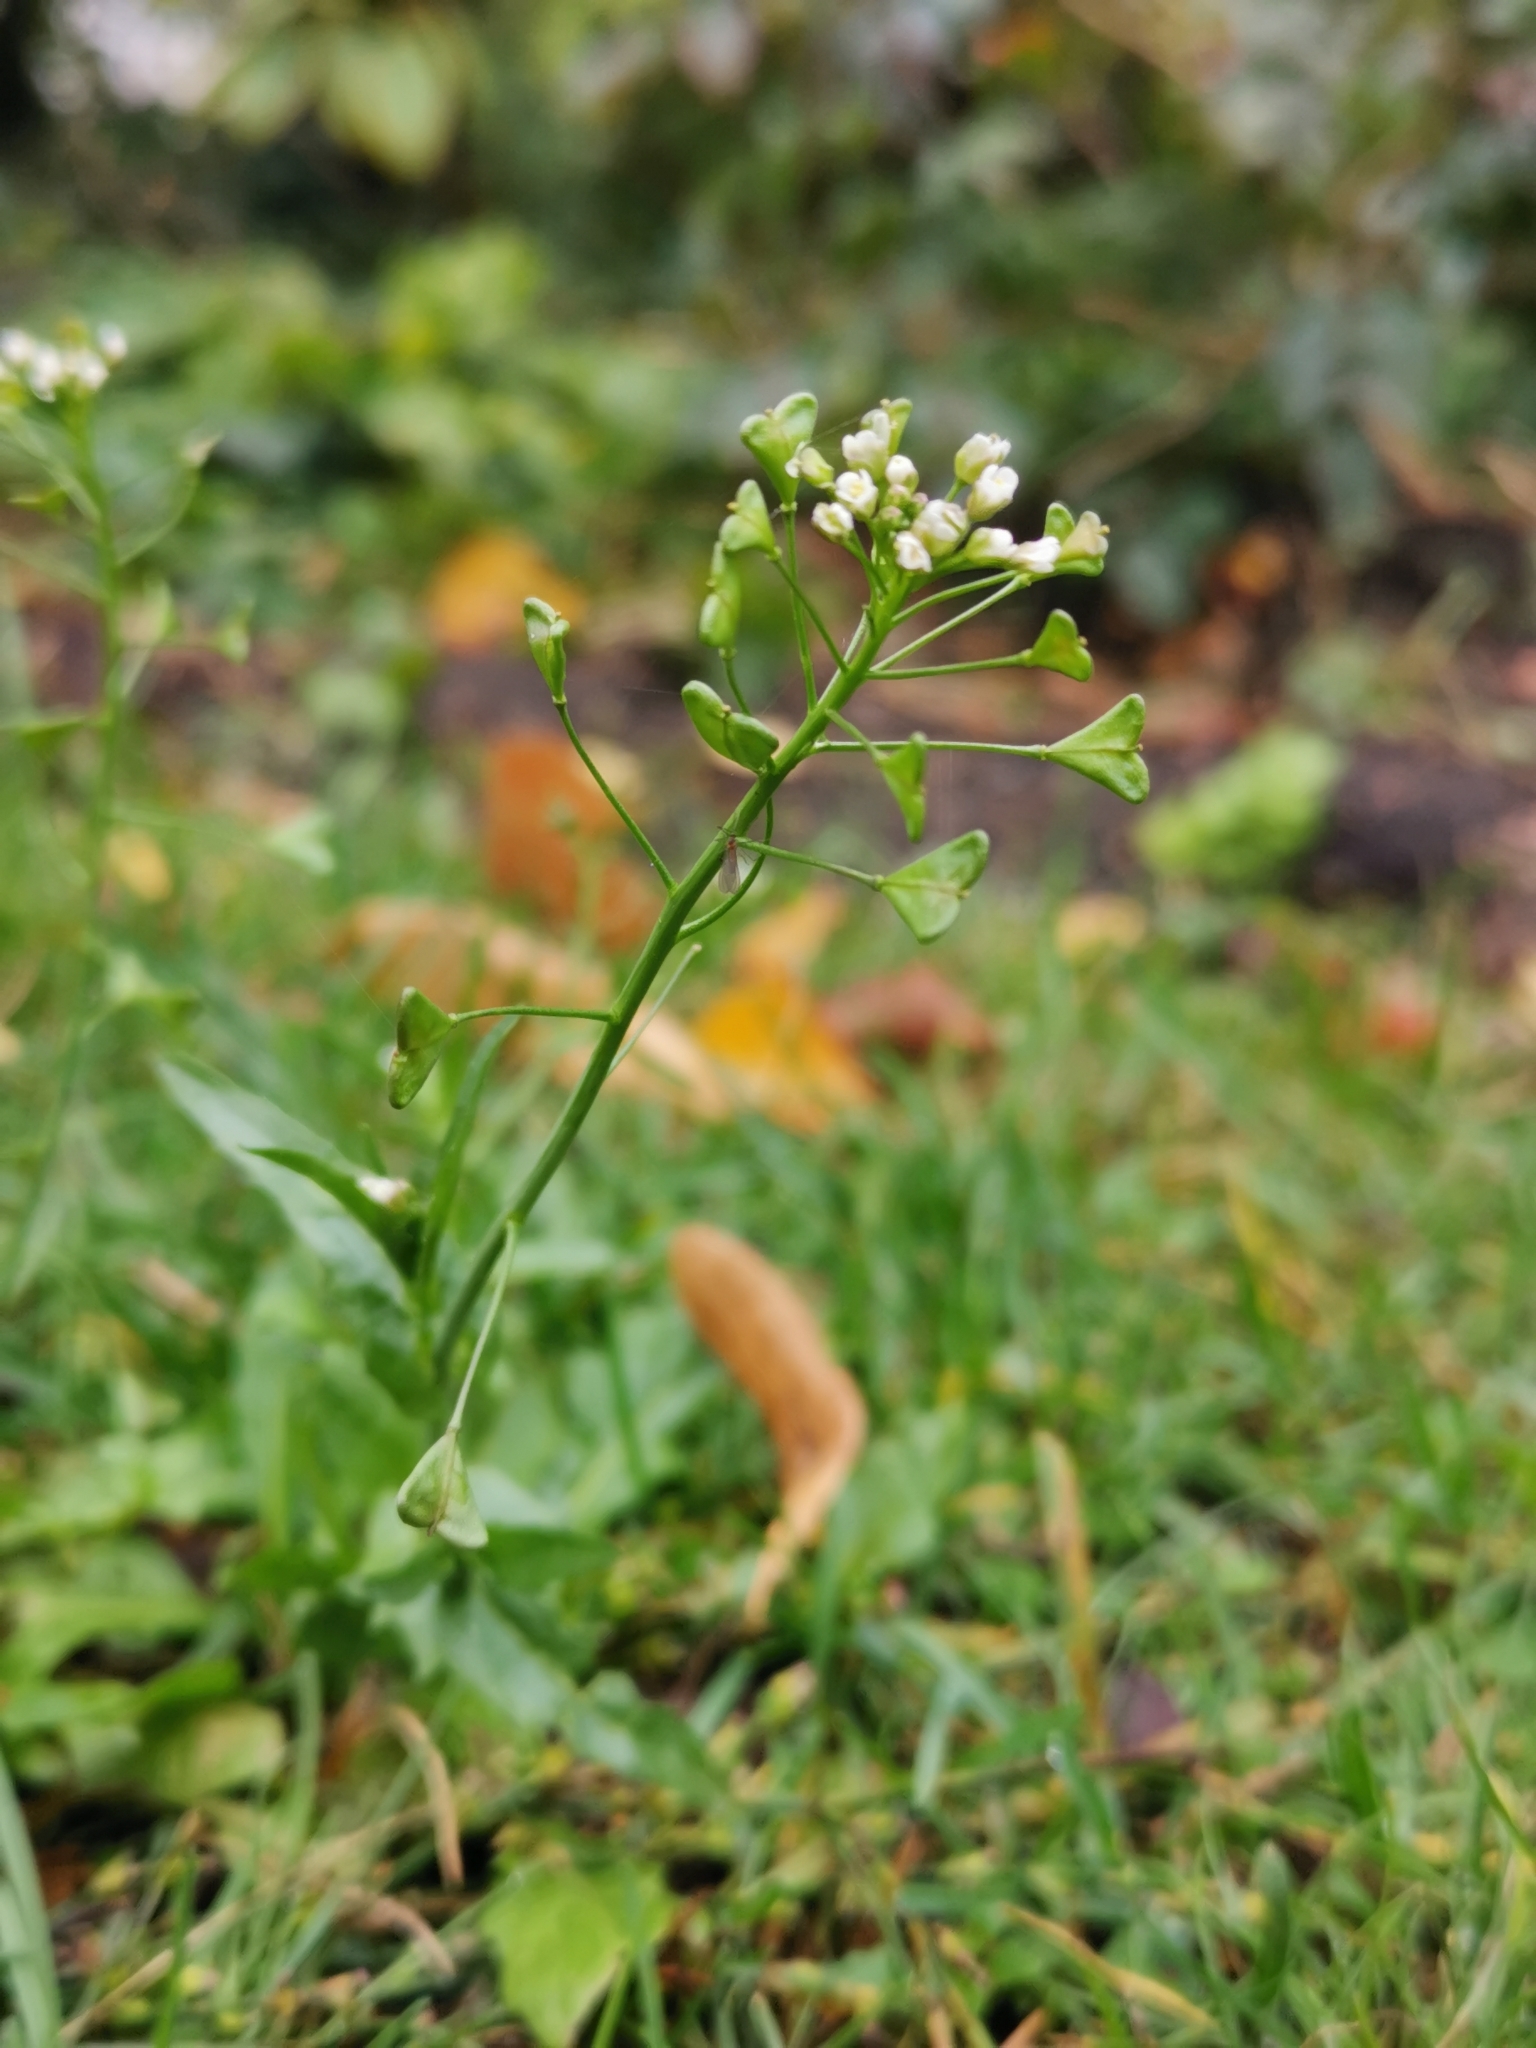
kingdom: Plantae
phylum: Tracheophyta
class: Magnoliopsida
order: Brassicales
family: Brassicaceae
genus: Capsella
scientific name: Capsella bursa-pastoris
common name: Shepherd's purse
